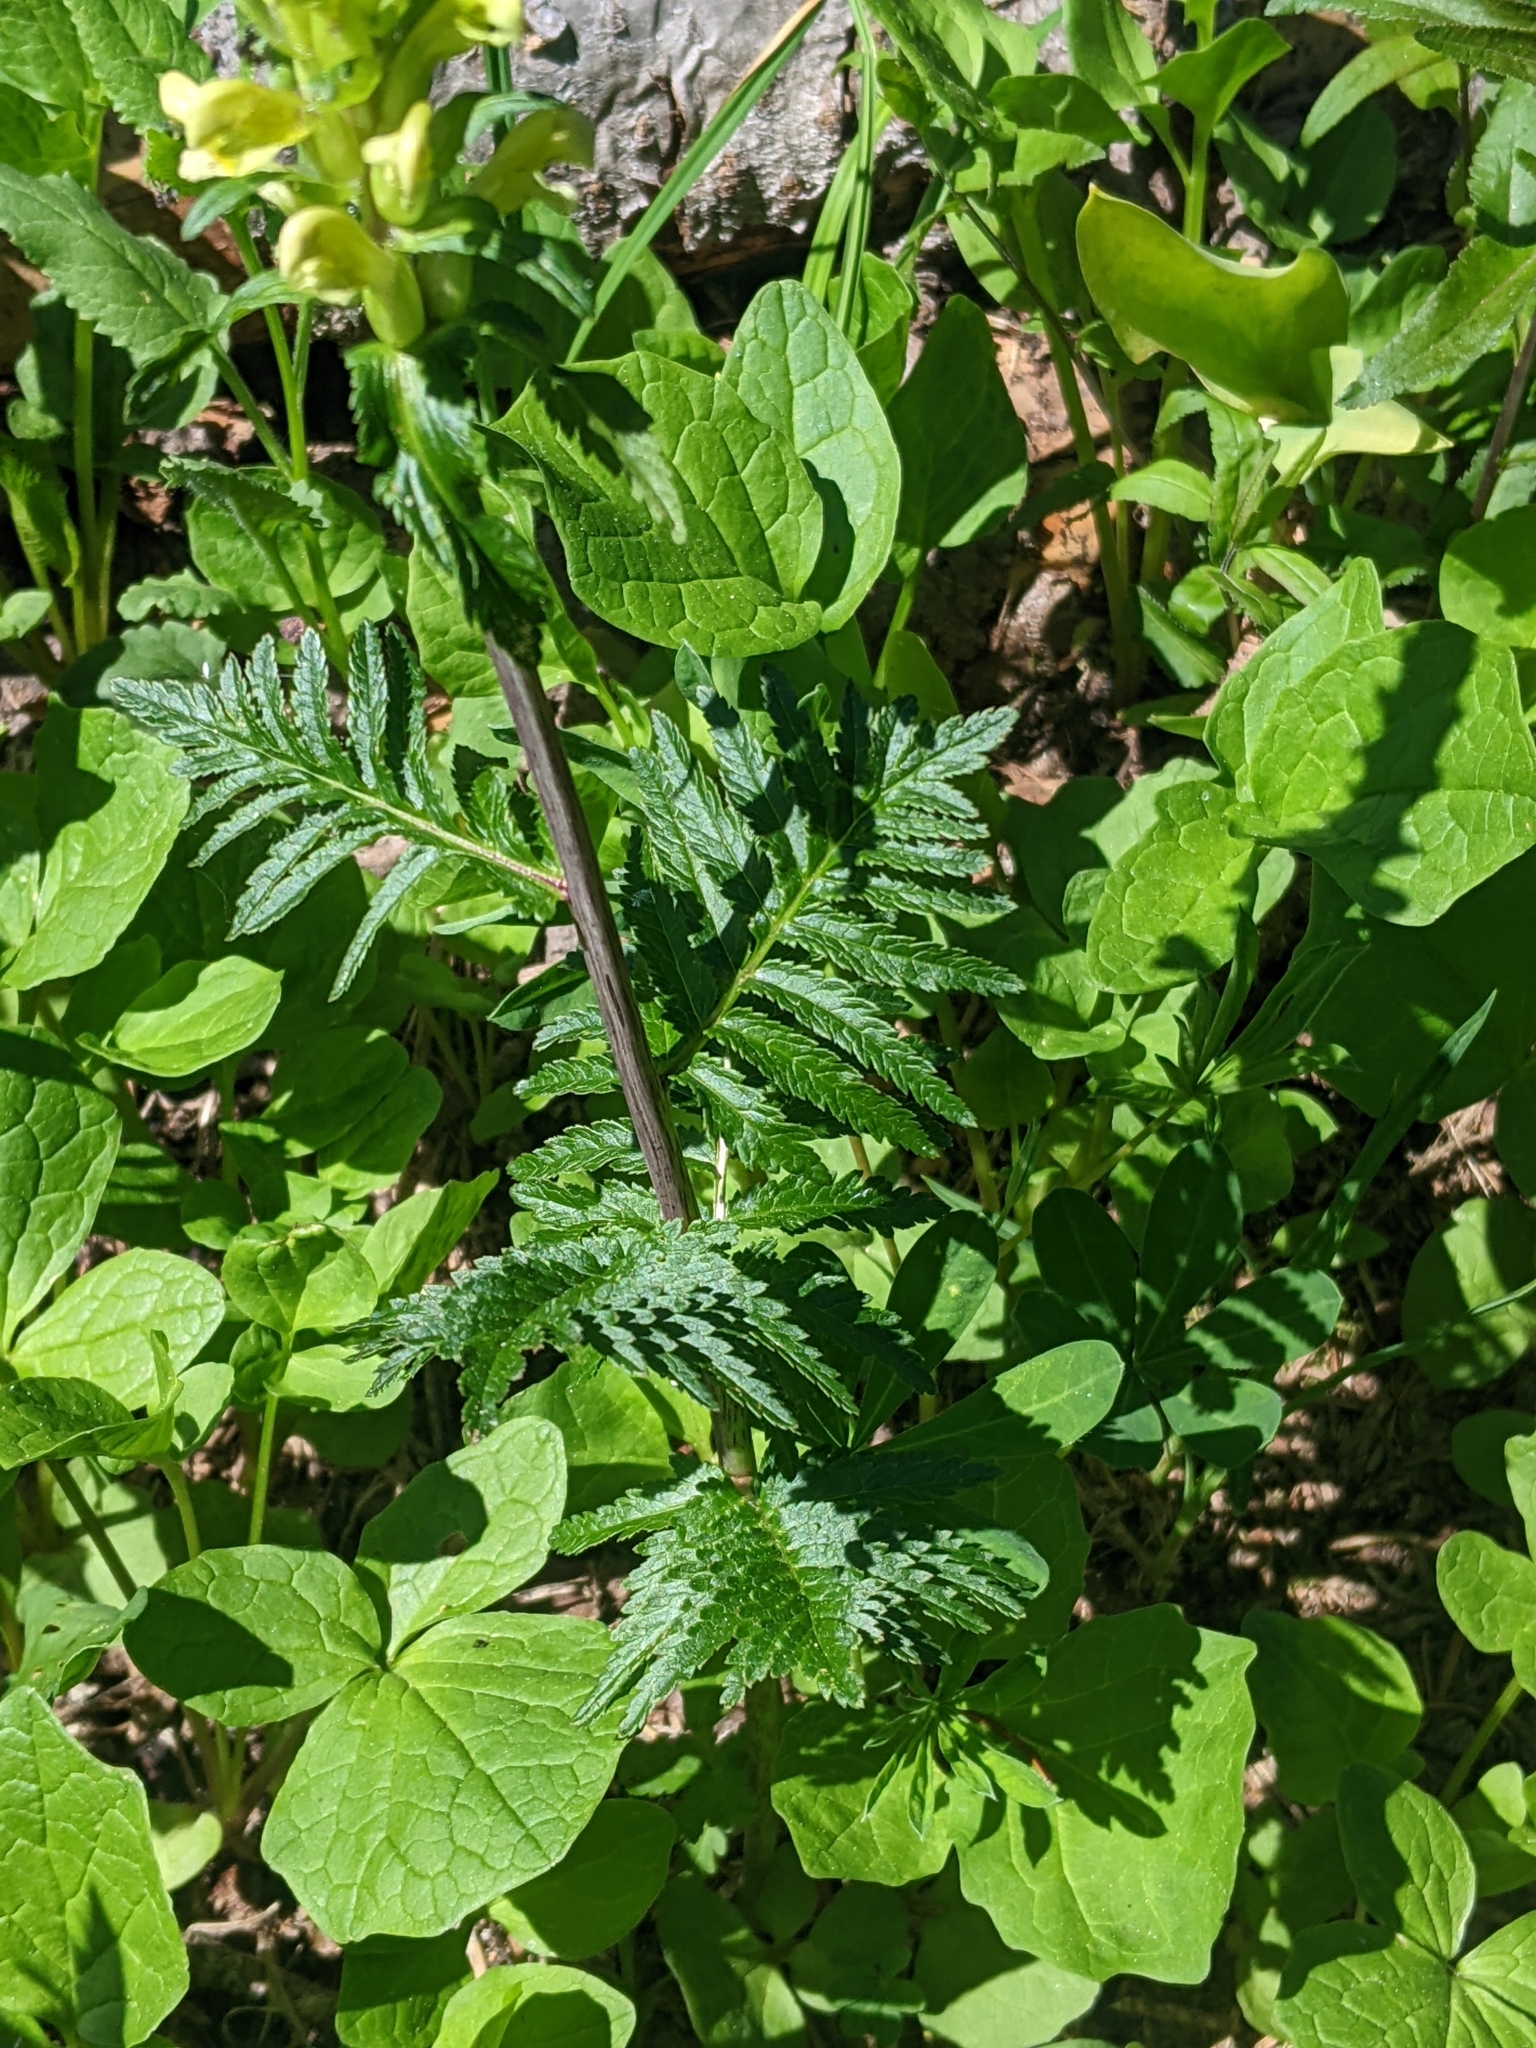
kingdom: Plantae
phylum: Tracheophyta
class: Magnoliopsida
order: Lamiales
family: Orobanchaceae
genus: Pedicularis
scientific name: Pedicularis bracteosa
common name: Bracted lousewort
